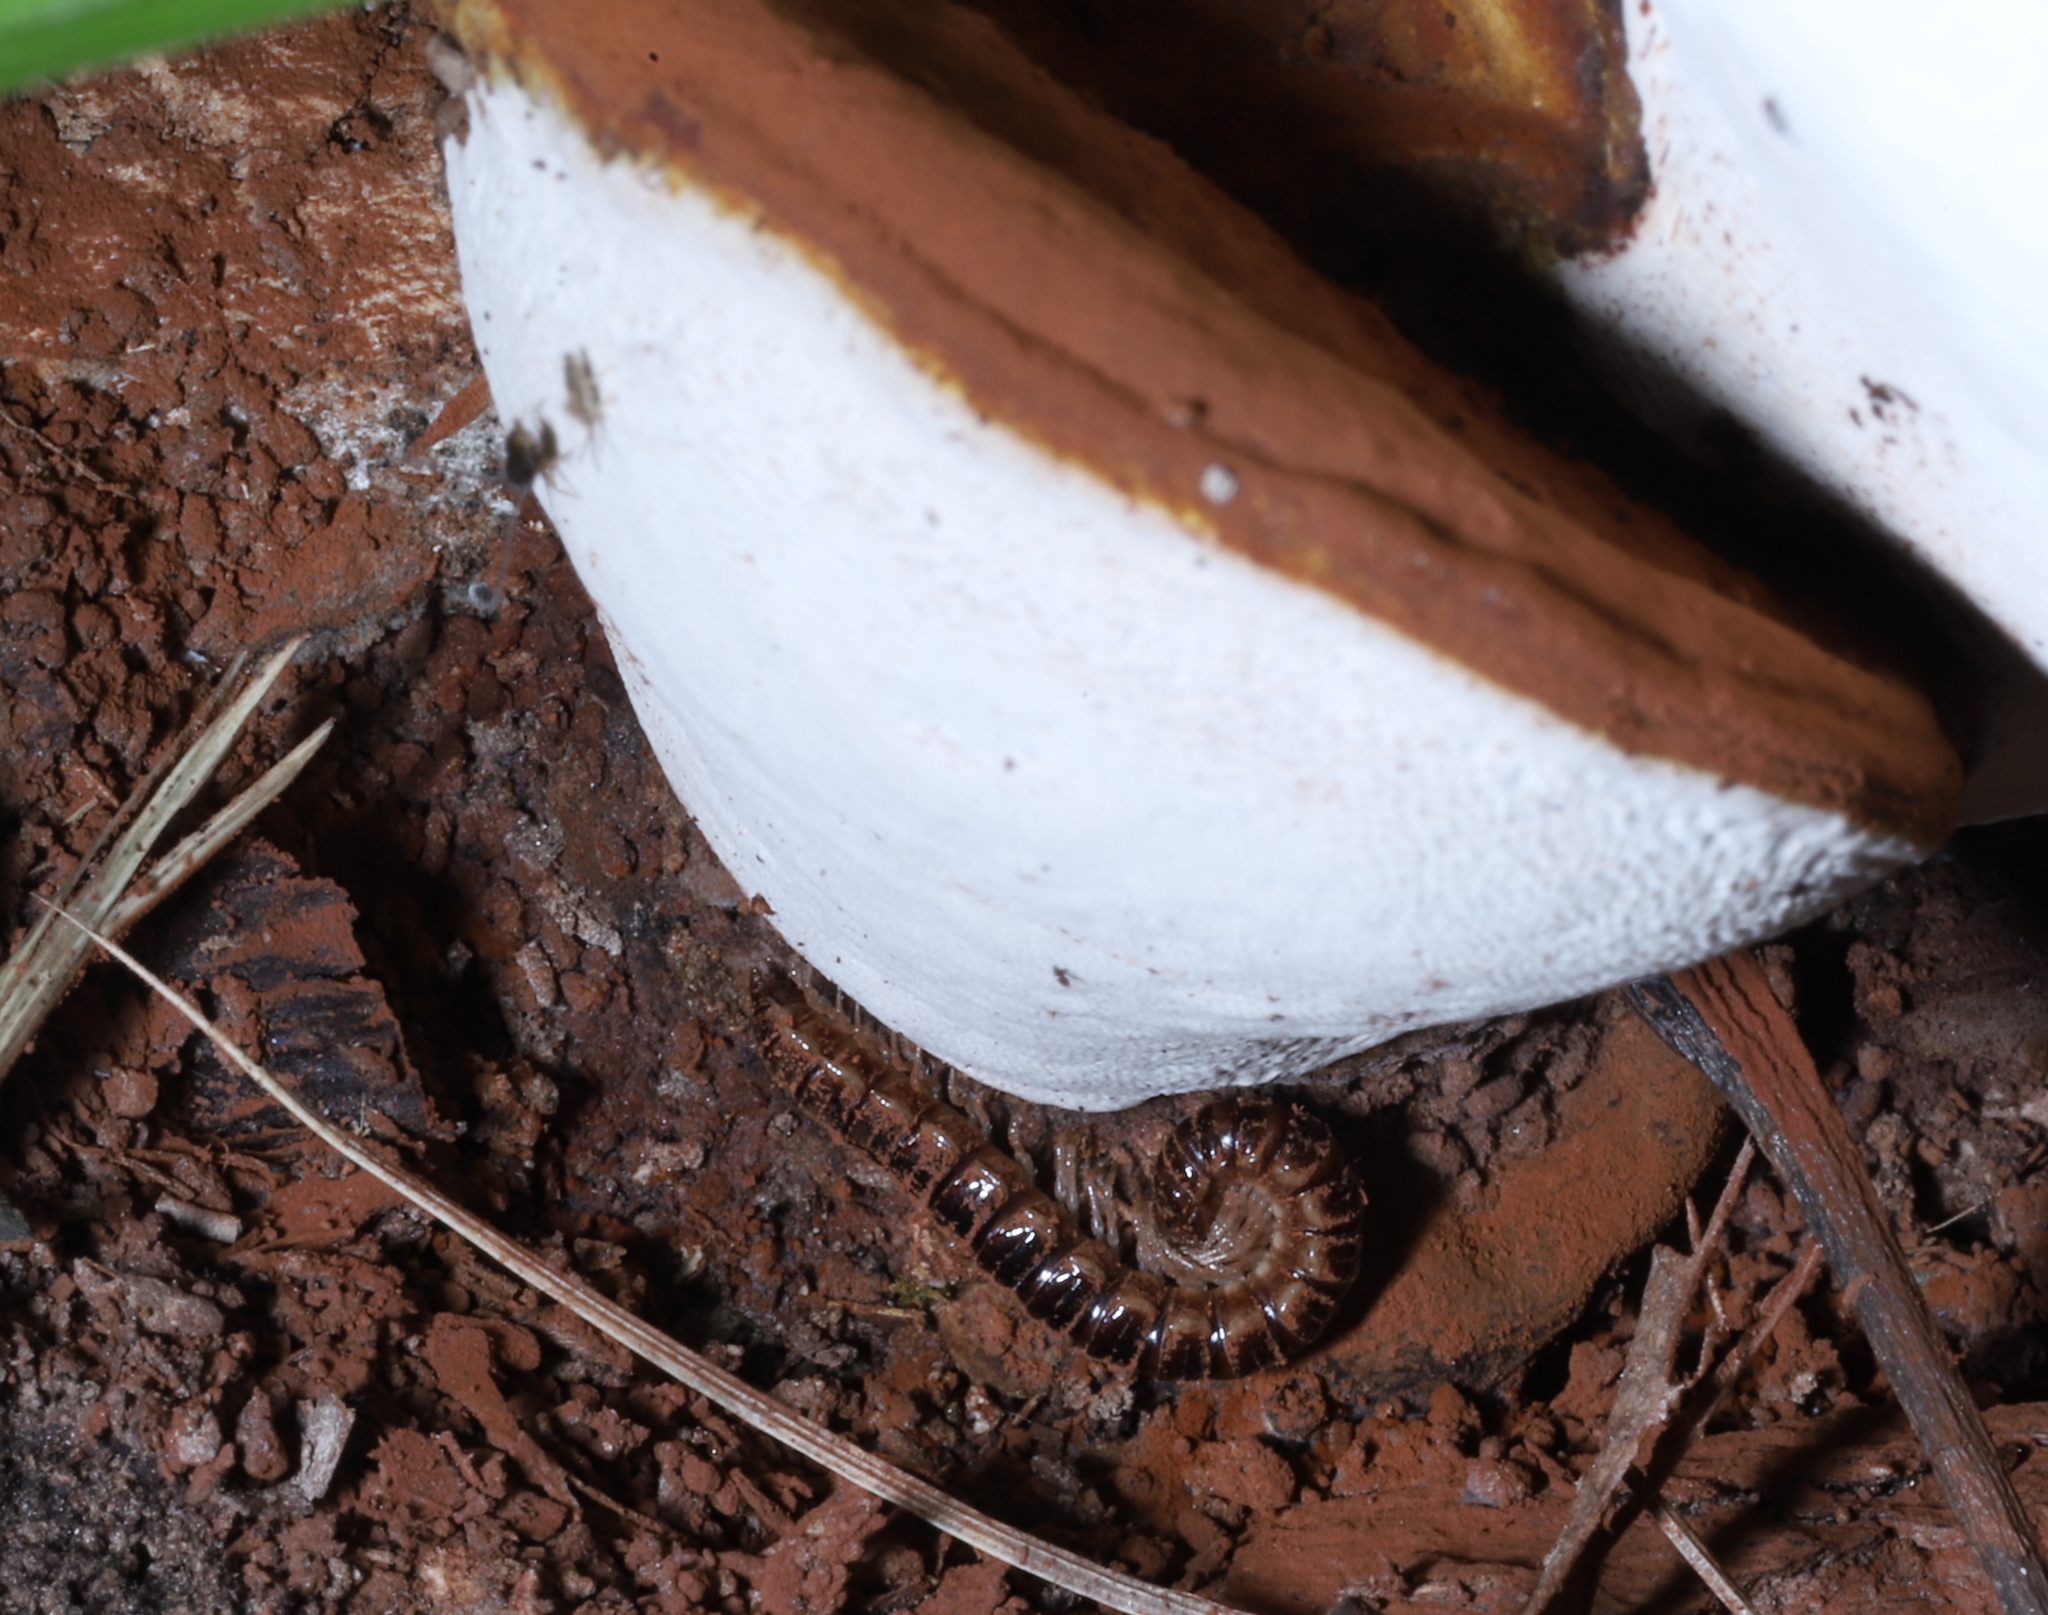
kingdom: Animalia
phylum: Arthropoda
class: Diplopoda
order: Polydesmida
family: Paradoxosomatidae
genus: Oxidus
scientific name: Oxidus gracilis
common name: Greenhouse millipede
